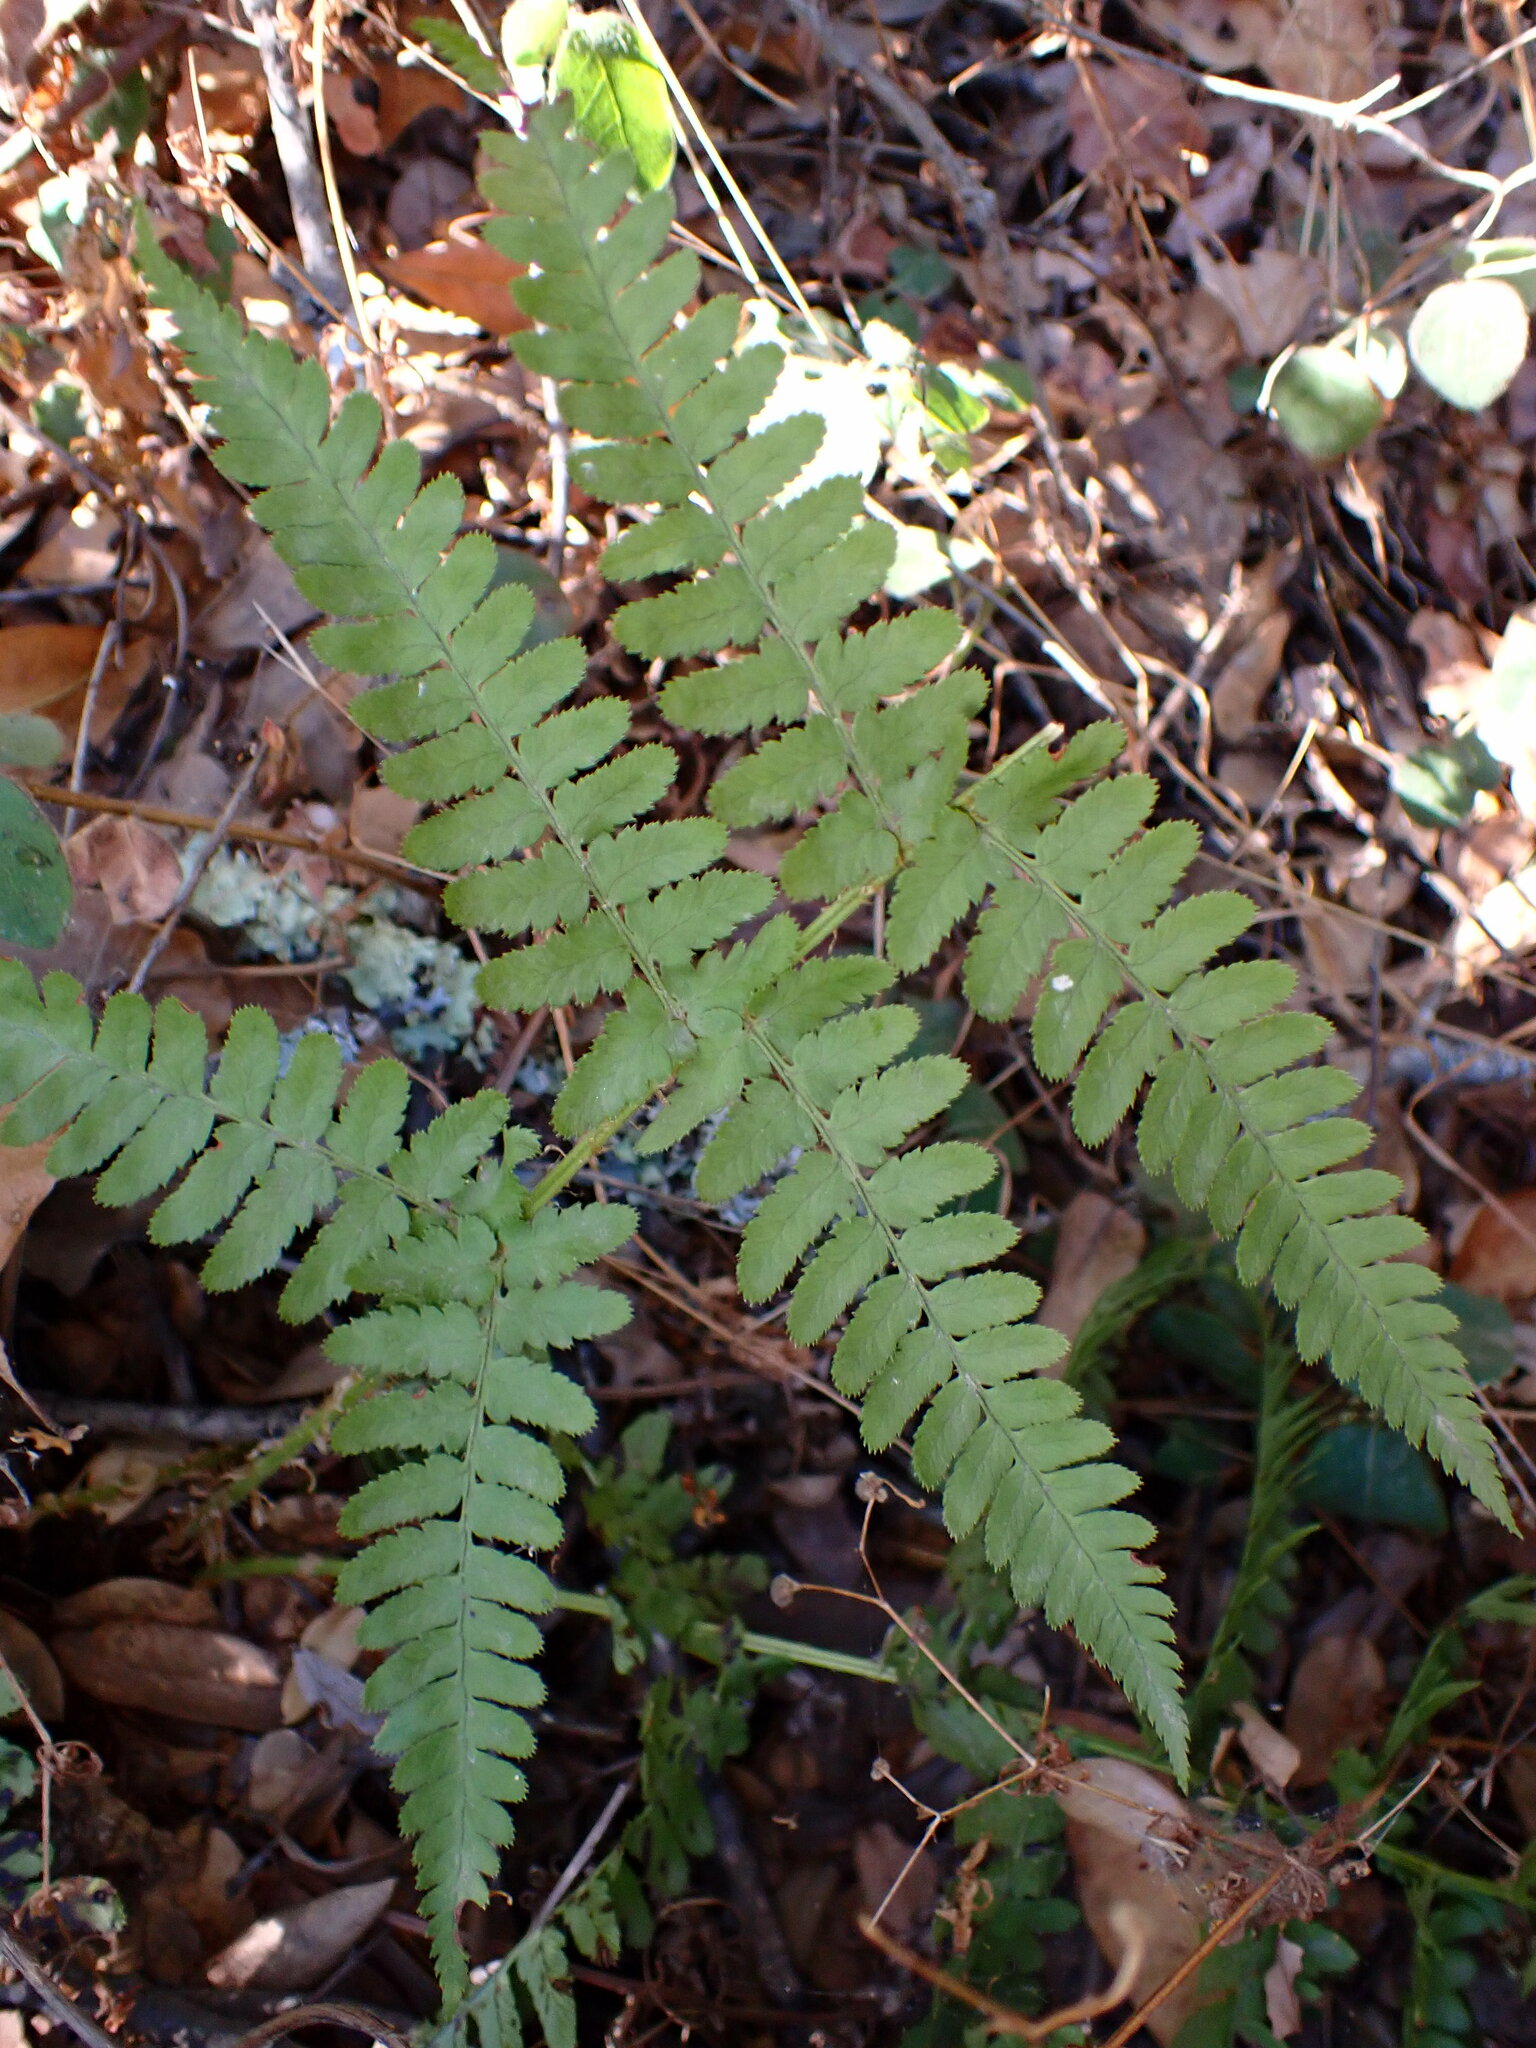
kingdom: Plantae
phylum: Tracheophyta
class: Polypodiopsida
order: Polypodiales
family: Dryopteridaceae
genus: Dryopteris
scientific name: Dryopteris arguta
